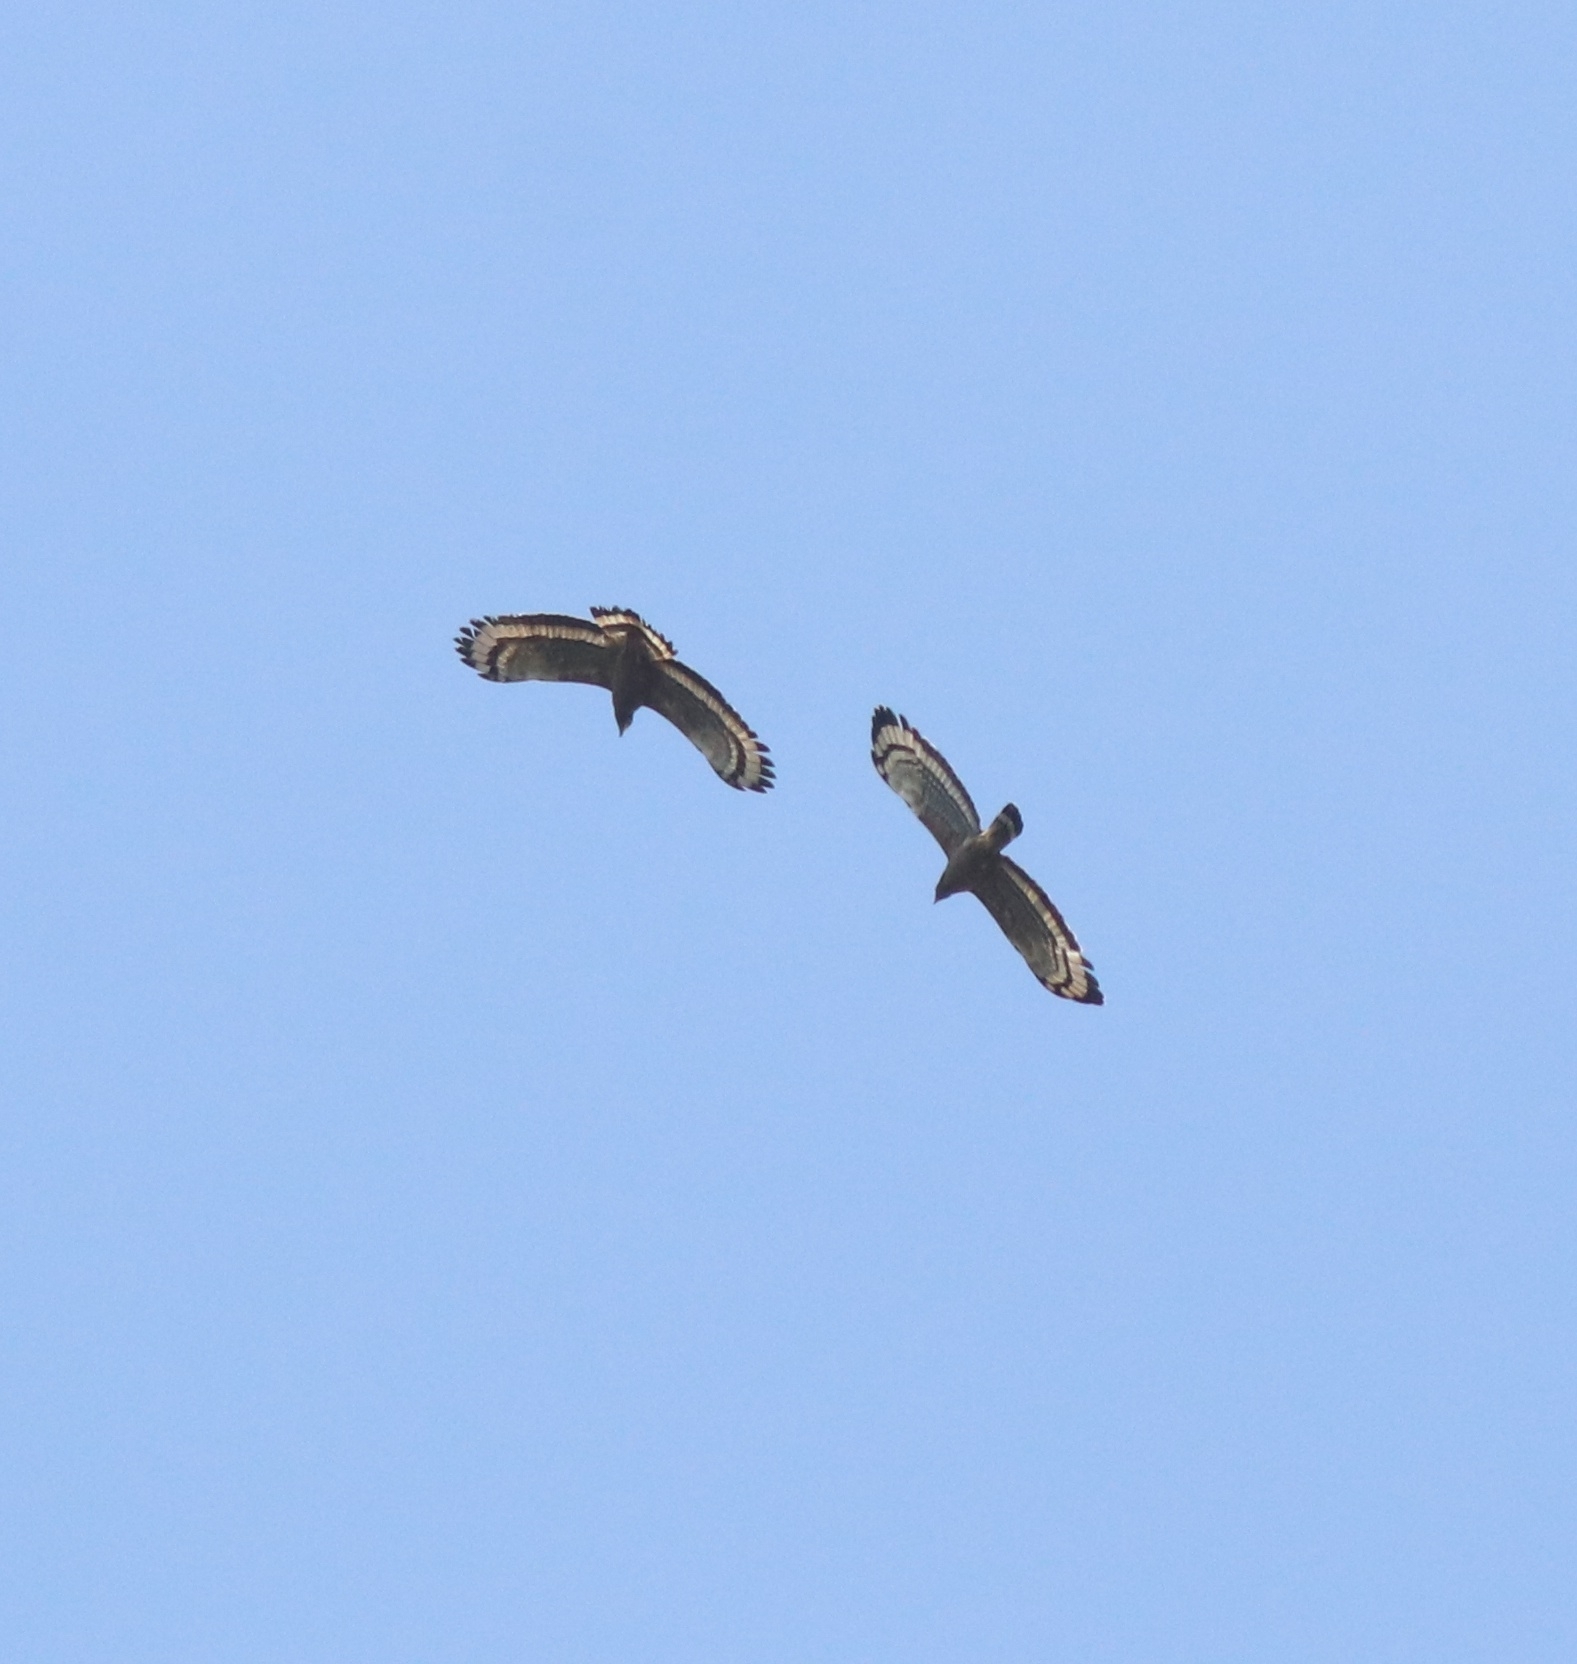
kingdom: Animalia
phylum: Chordata
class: Aves
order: Accipitriformes
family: Accipitridae
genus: Spilornis
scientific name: Spilornis cheela
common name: Crested serpent eagle
